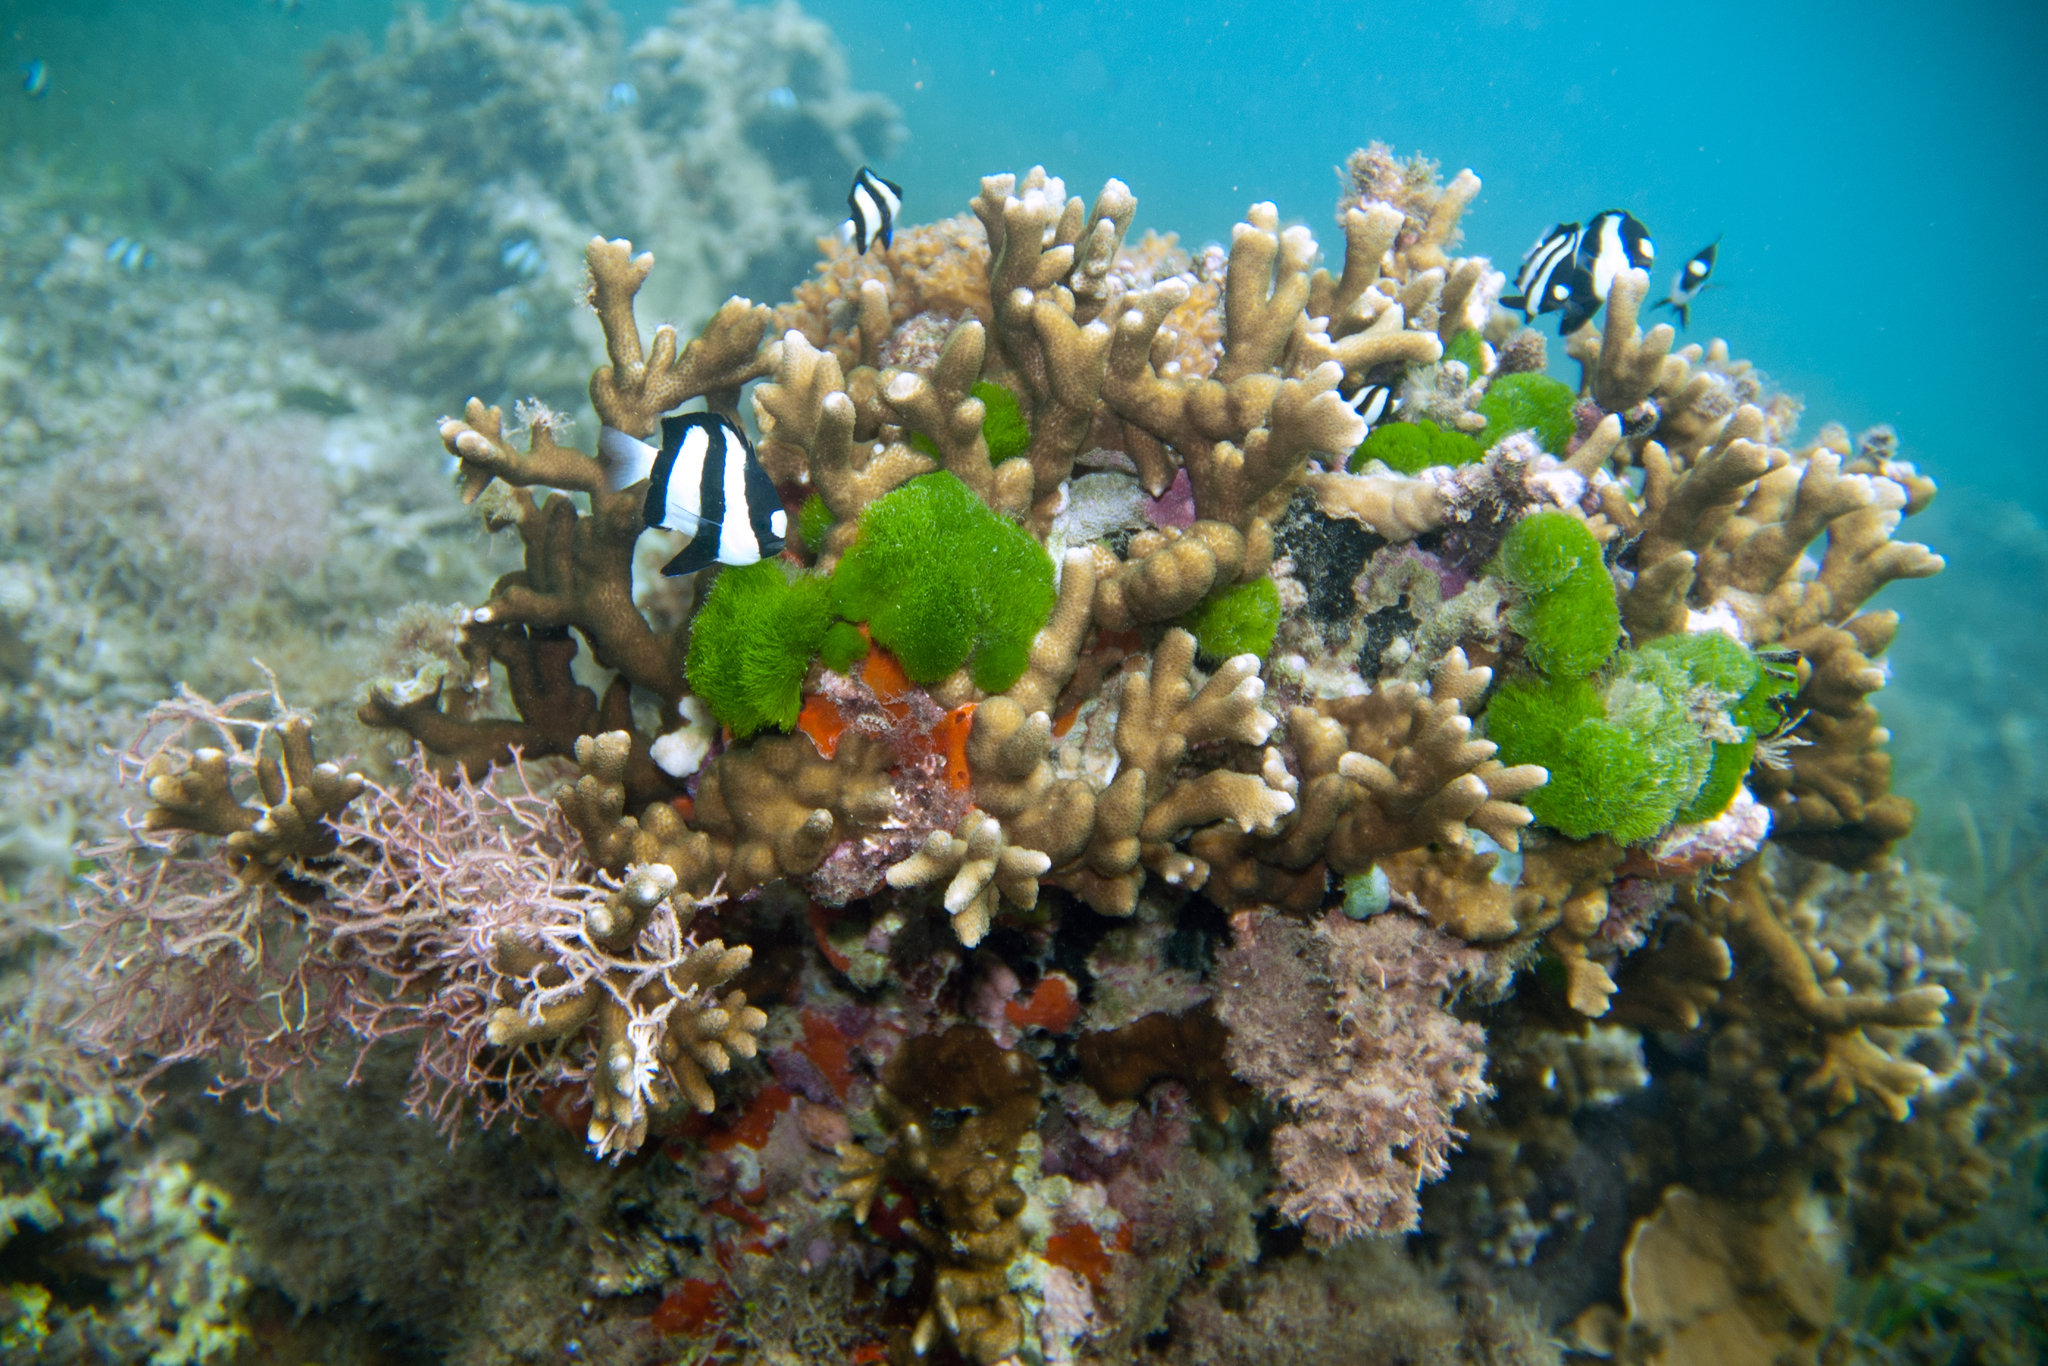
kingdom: Animalia
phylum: Chordata
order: Perciformes
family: Pomacentridae
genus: Dascyllus
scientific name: Dascyllus aruanus
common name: Humbug dascyllus
